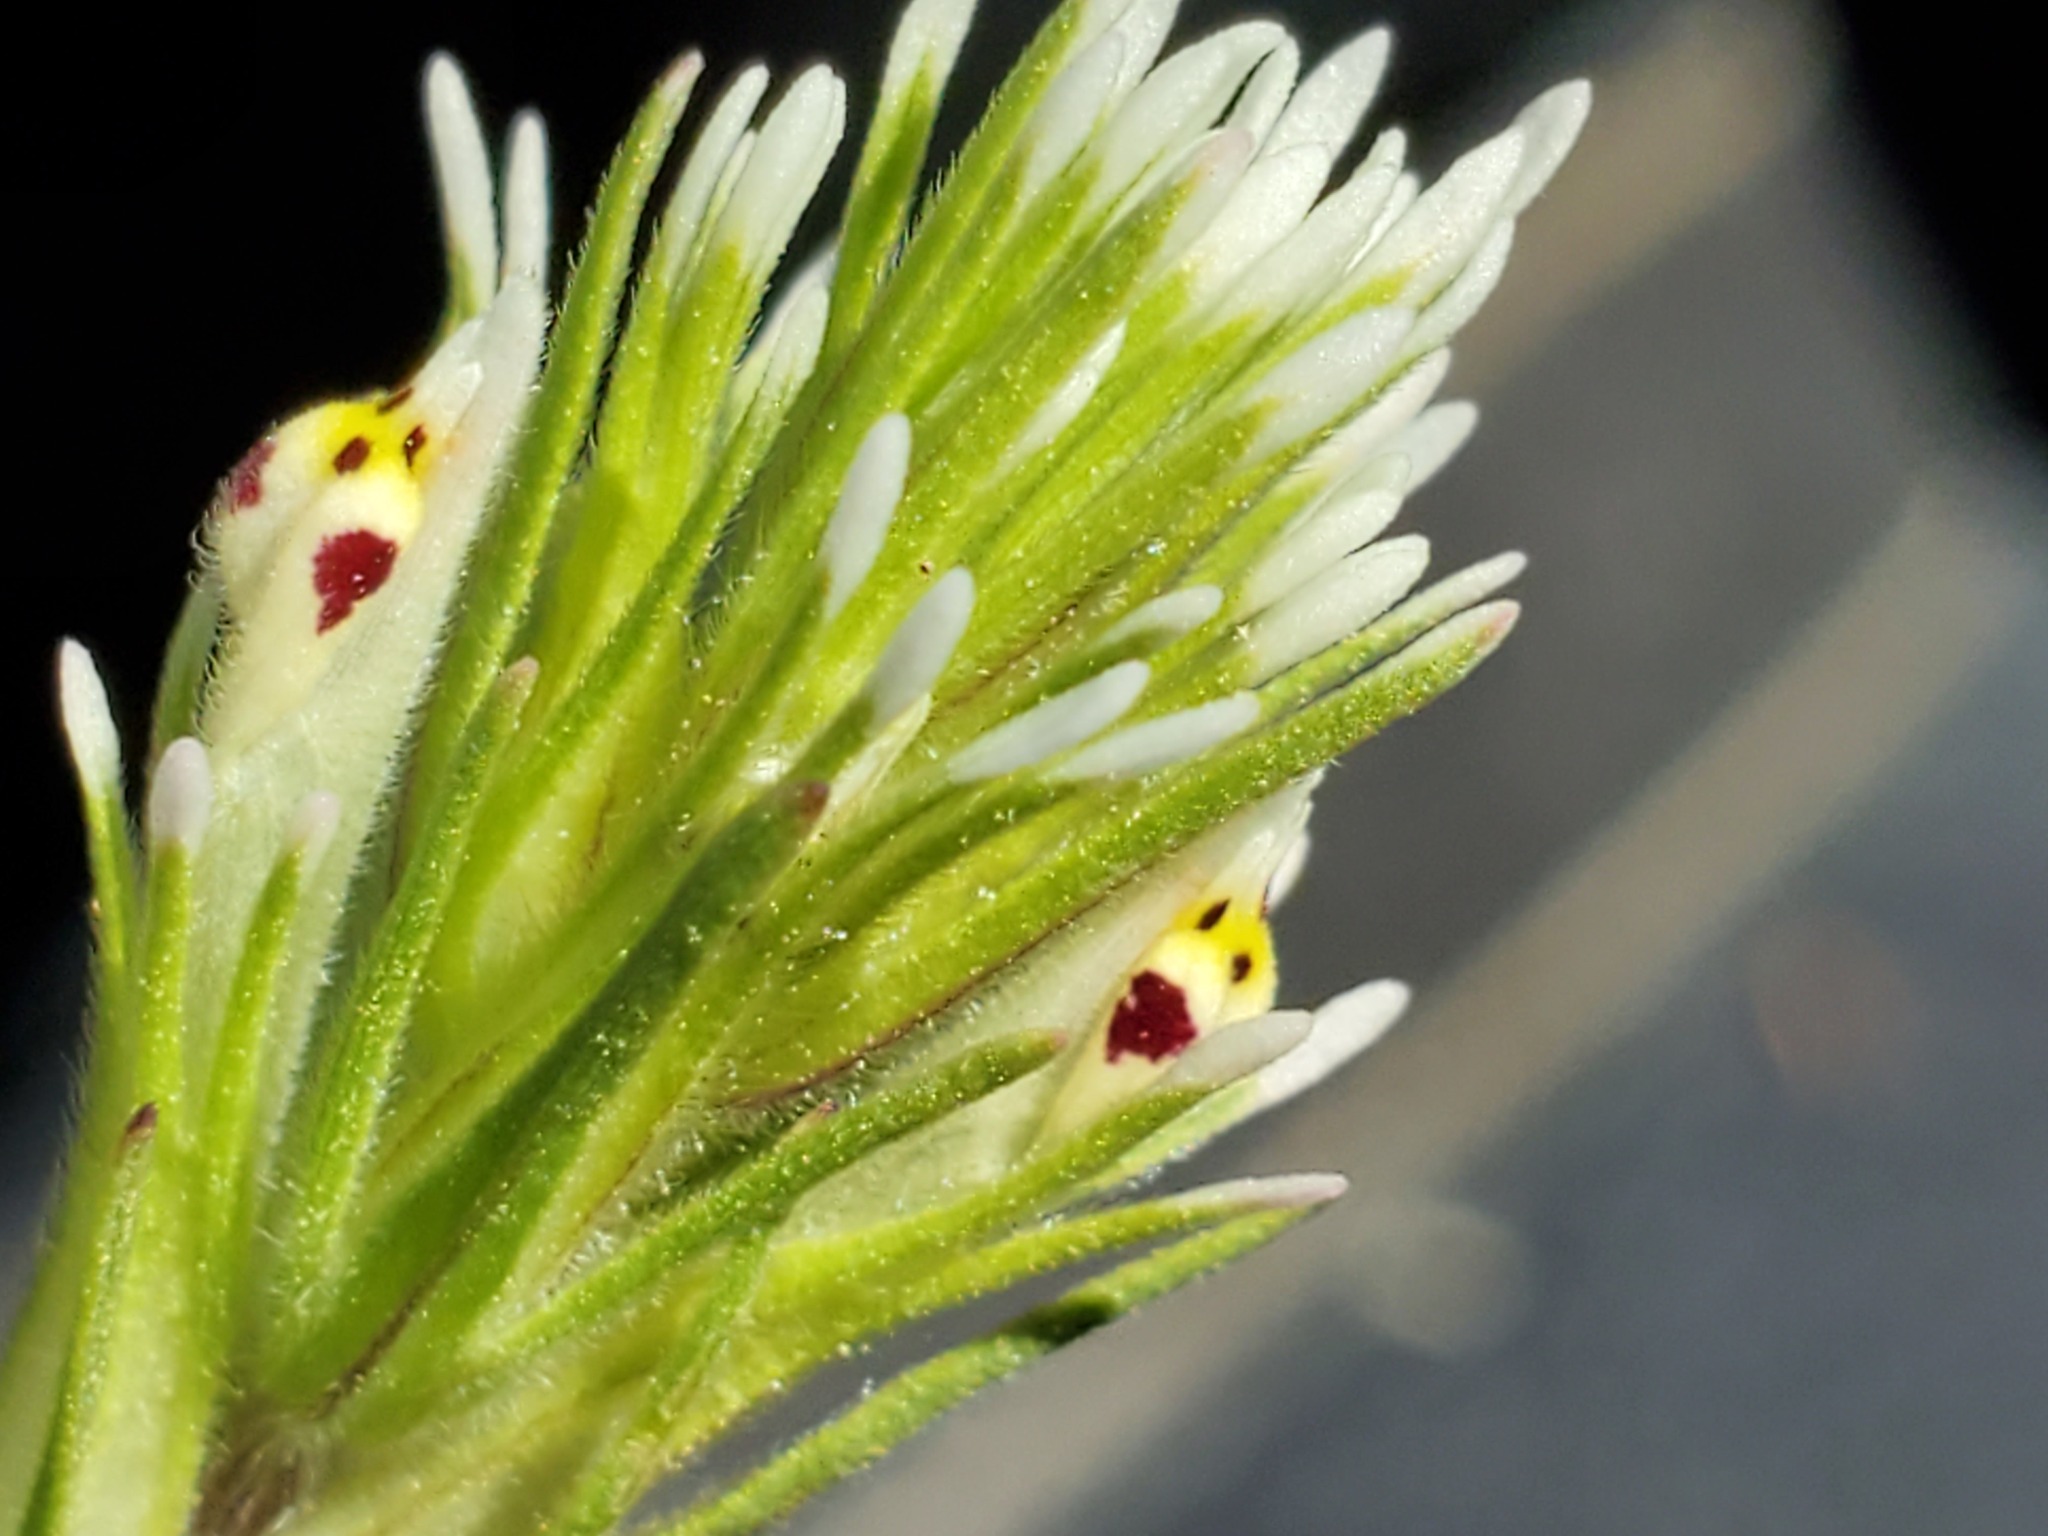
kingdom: Plantae
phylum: Tracheophyta
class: Magnoliopsida
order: Lamiales
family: Orobanchaceae
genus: Castilleja
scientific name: Castilleja attenuata
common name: Valley tassels
